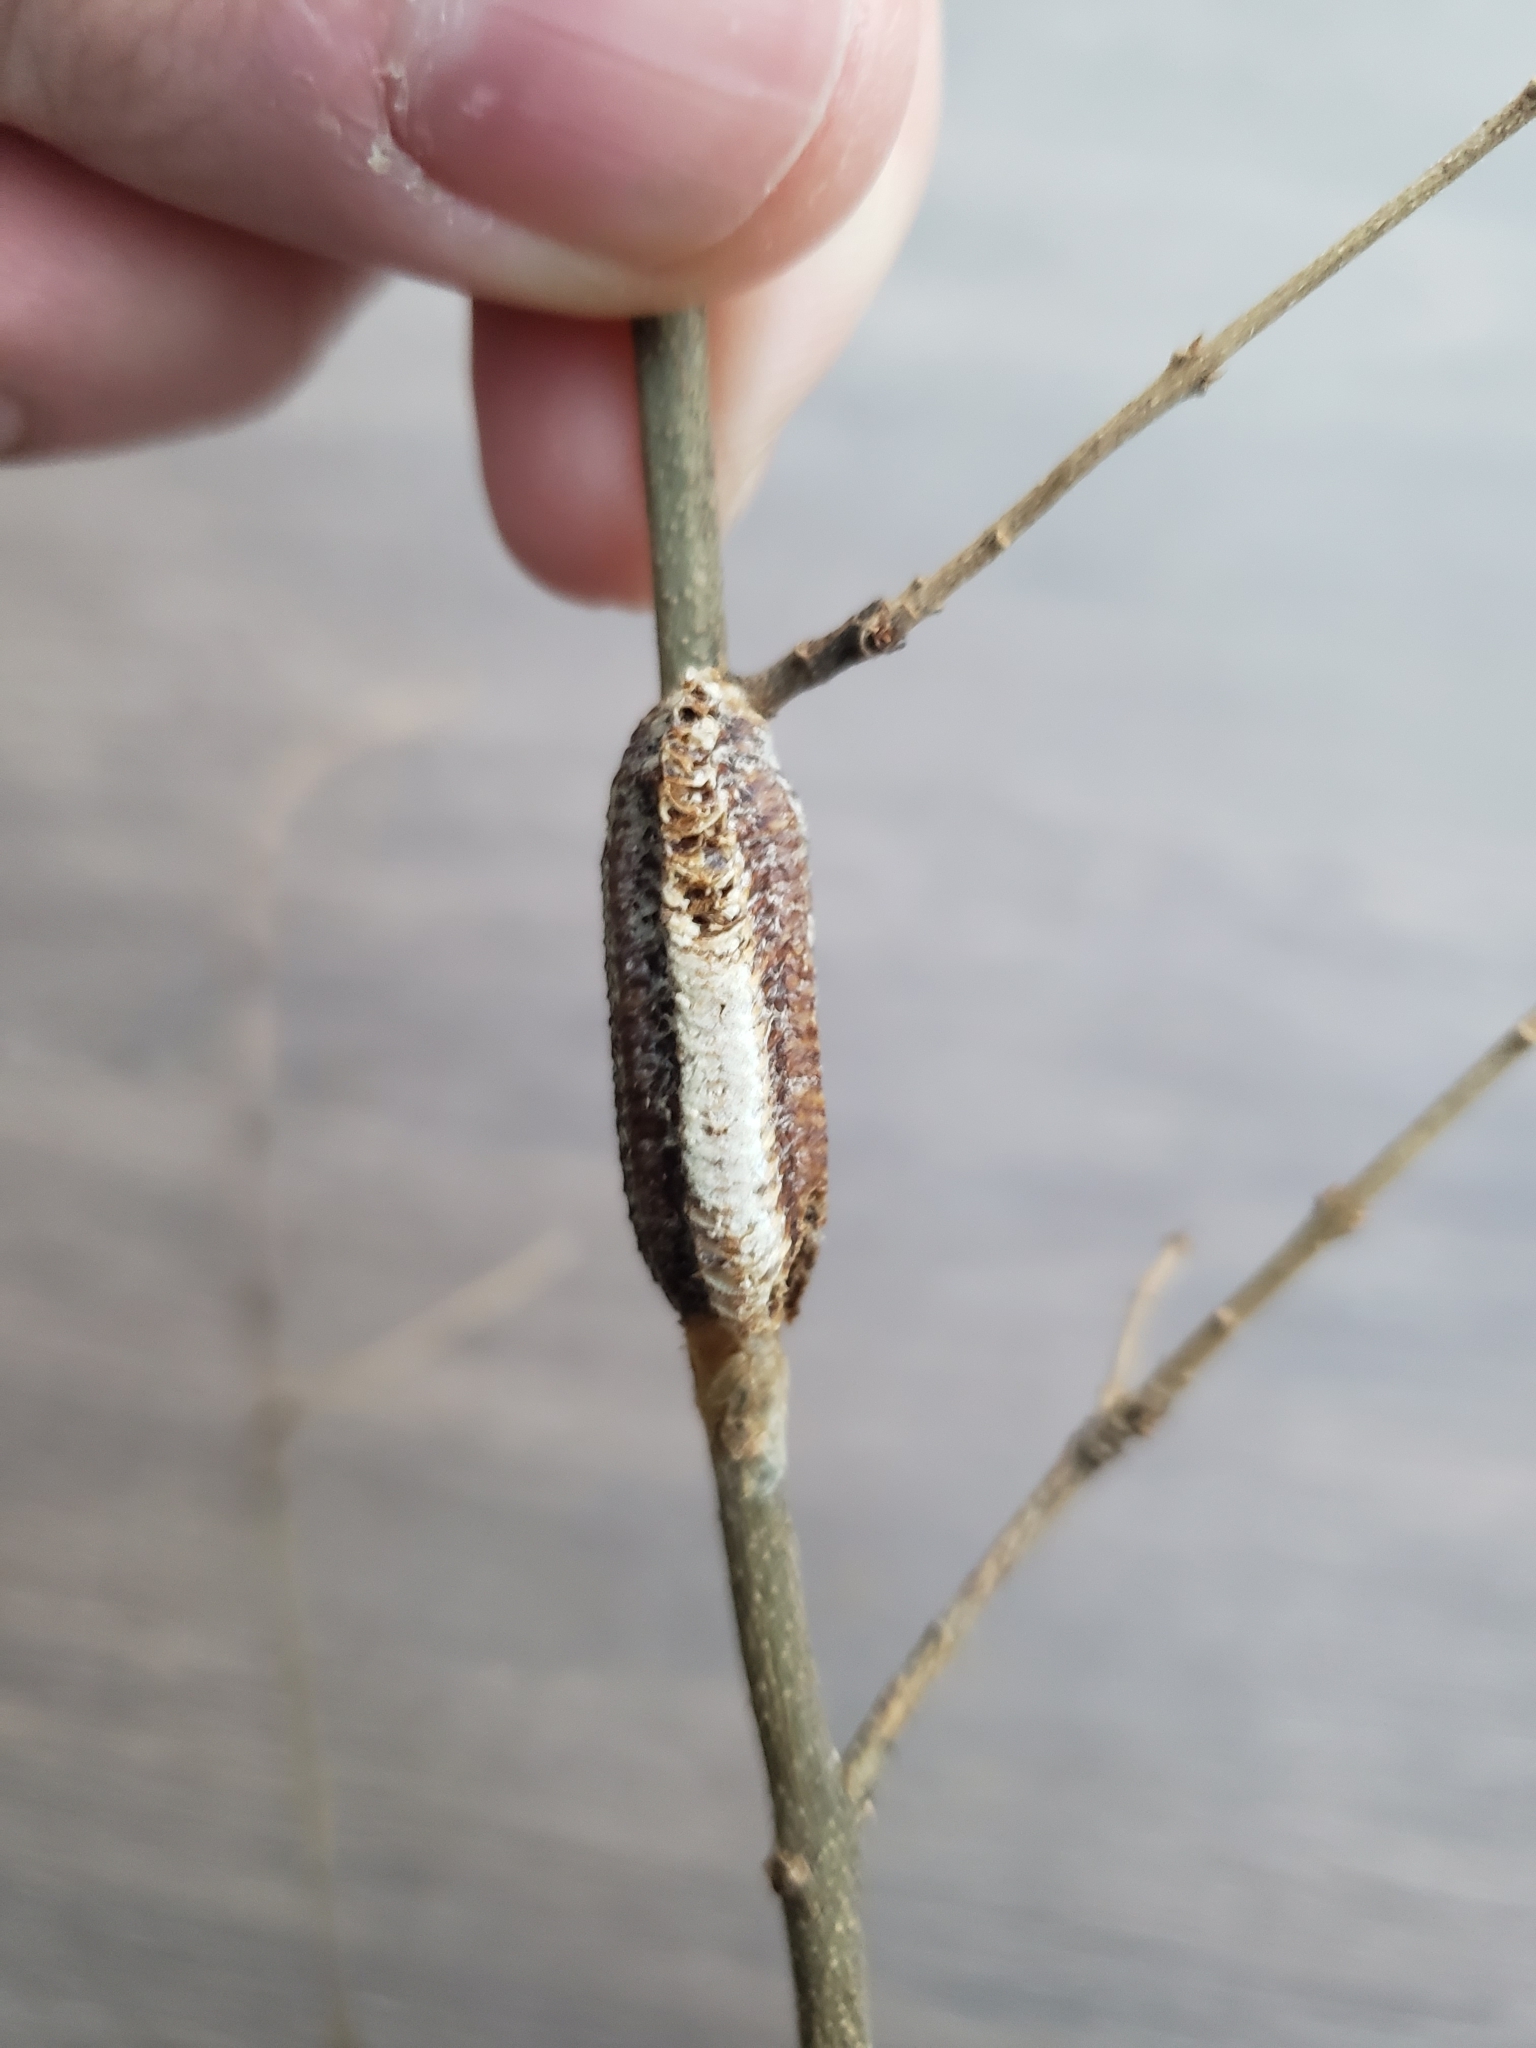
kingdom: Animalia
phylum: Arthropoda
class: Insecta
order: Mantodea
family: Mantidae
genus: Stagmomantis
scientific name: Stagmomantis carolina
